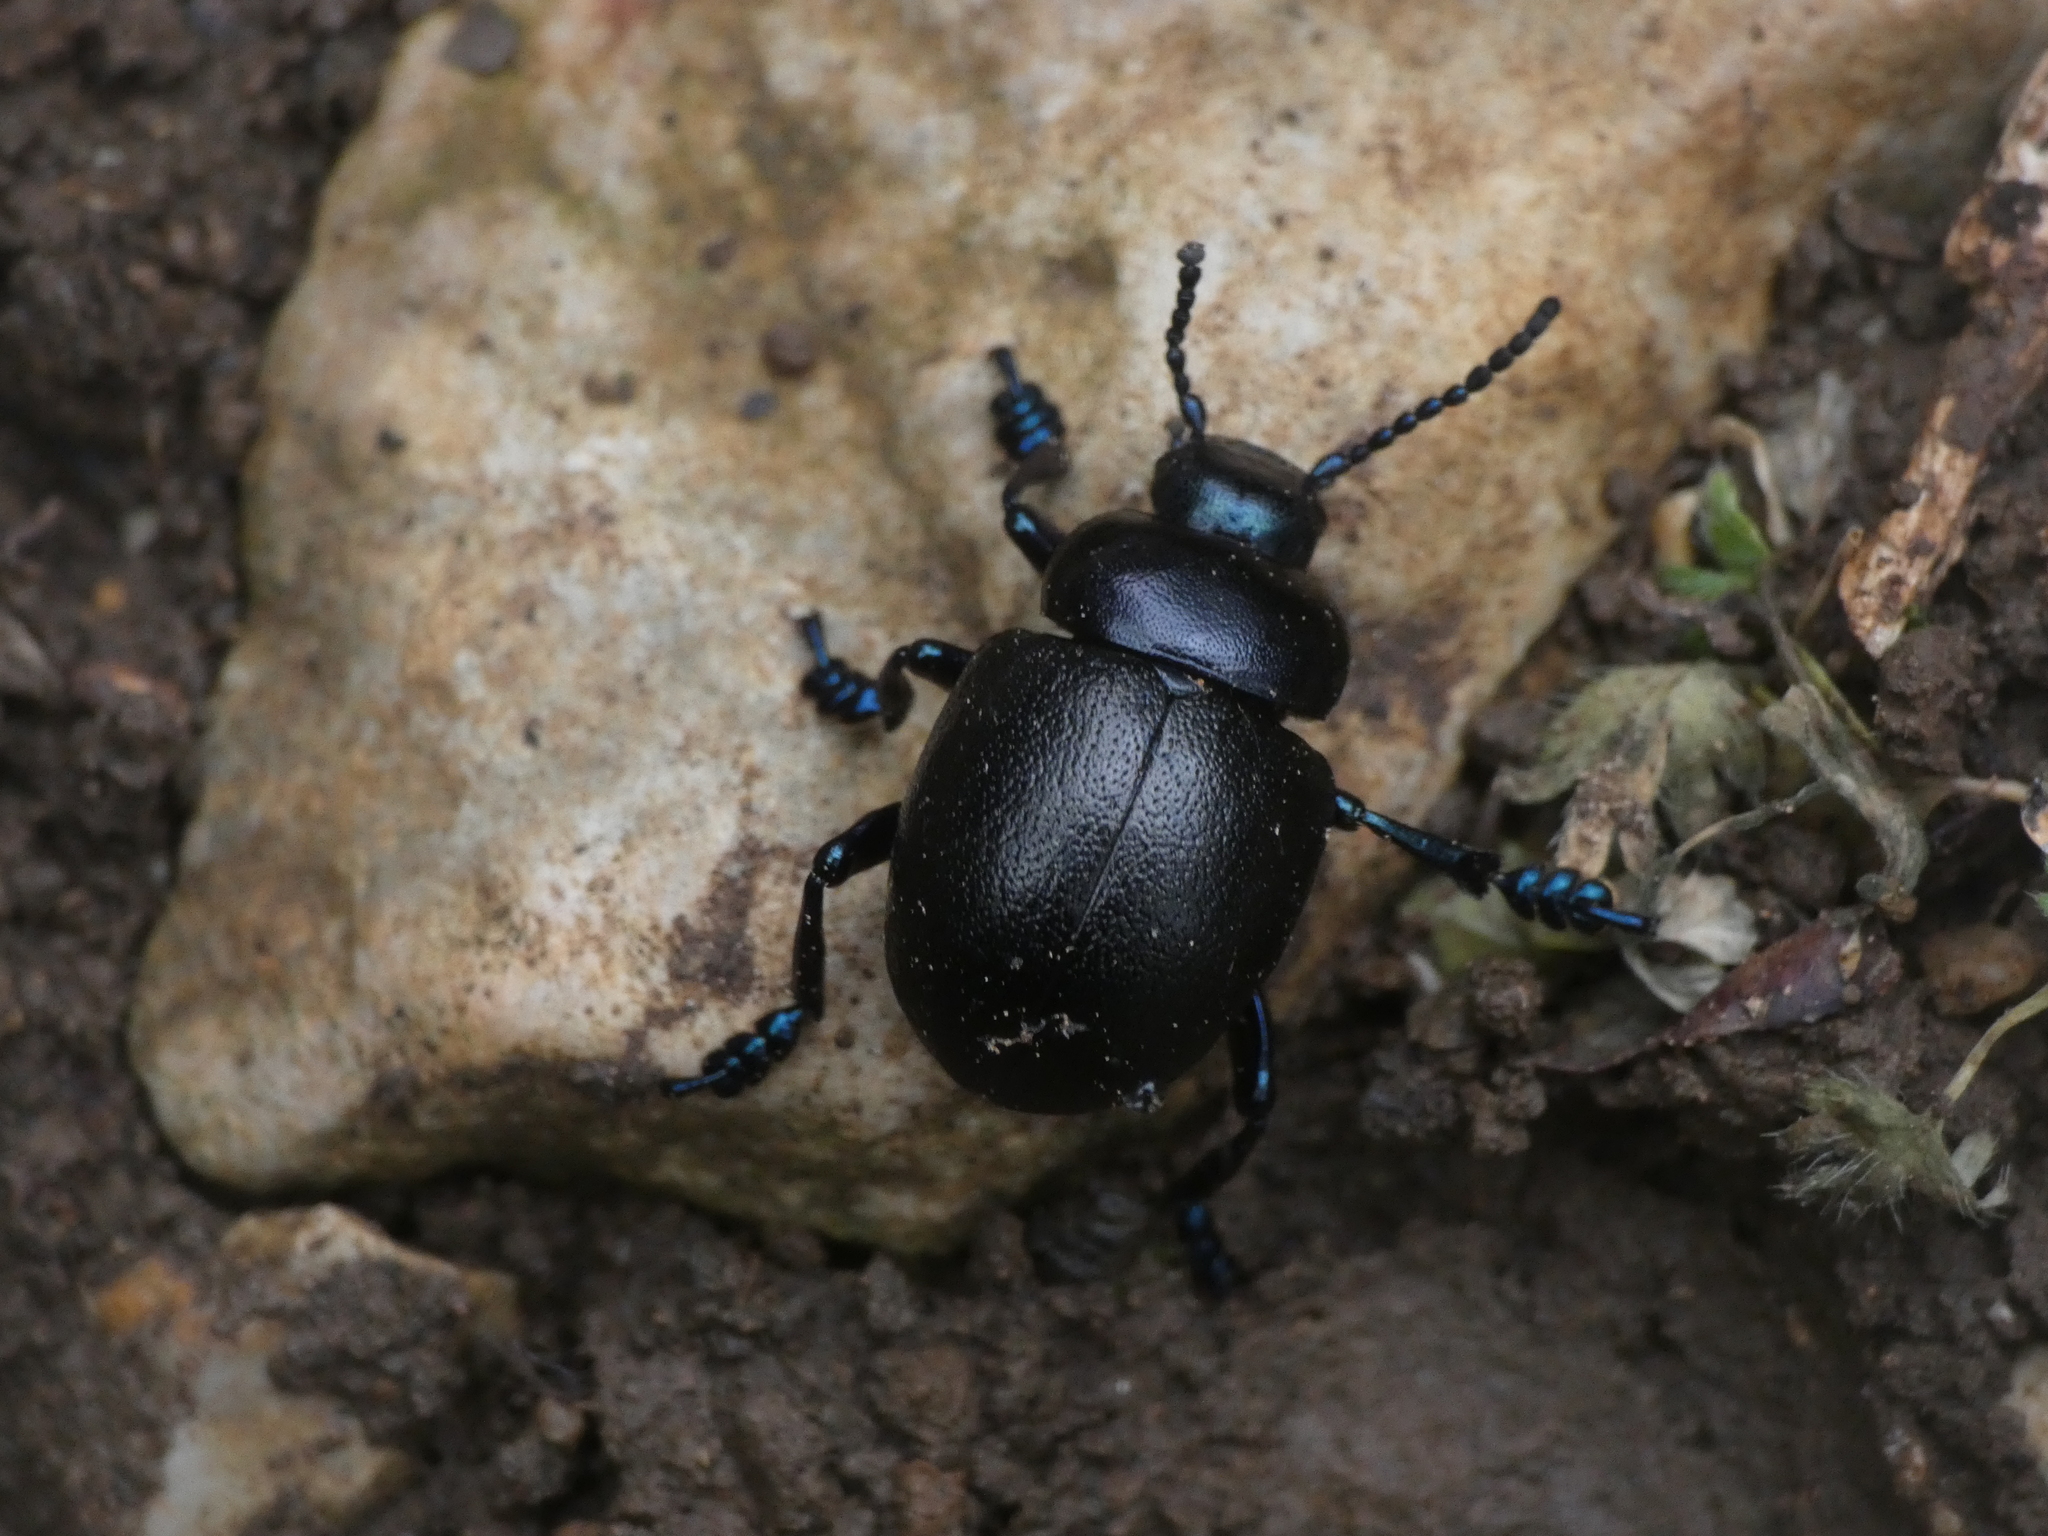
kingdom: Animalia
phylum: Arthropoda
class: Insecta
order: Coleoptera
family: Chrysomelidae
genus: Timarcha
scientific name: Timarcha tenebricosa
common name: Bloody-nosed beetle
